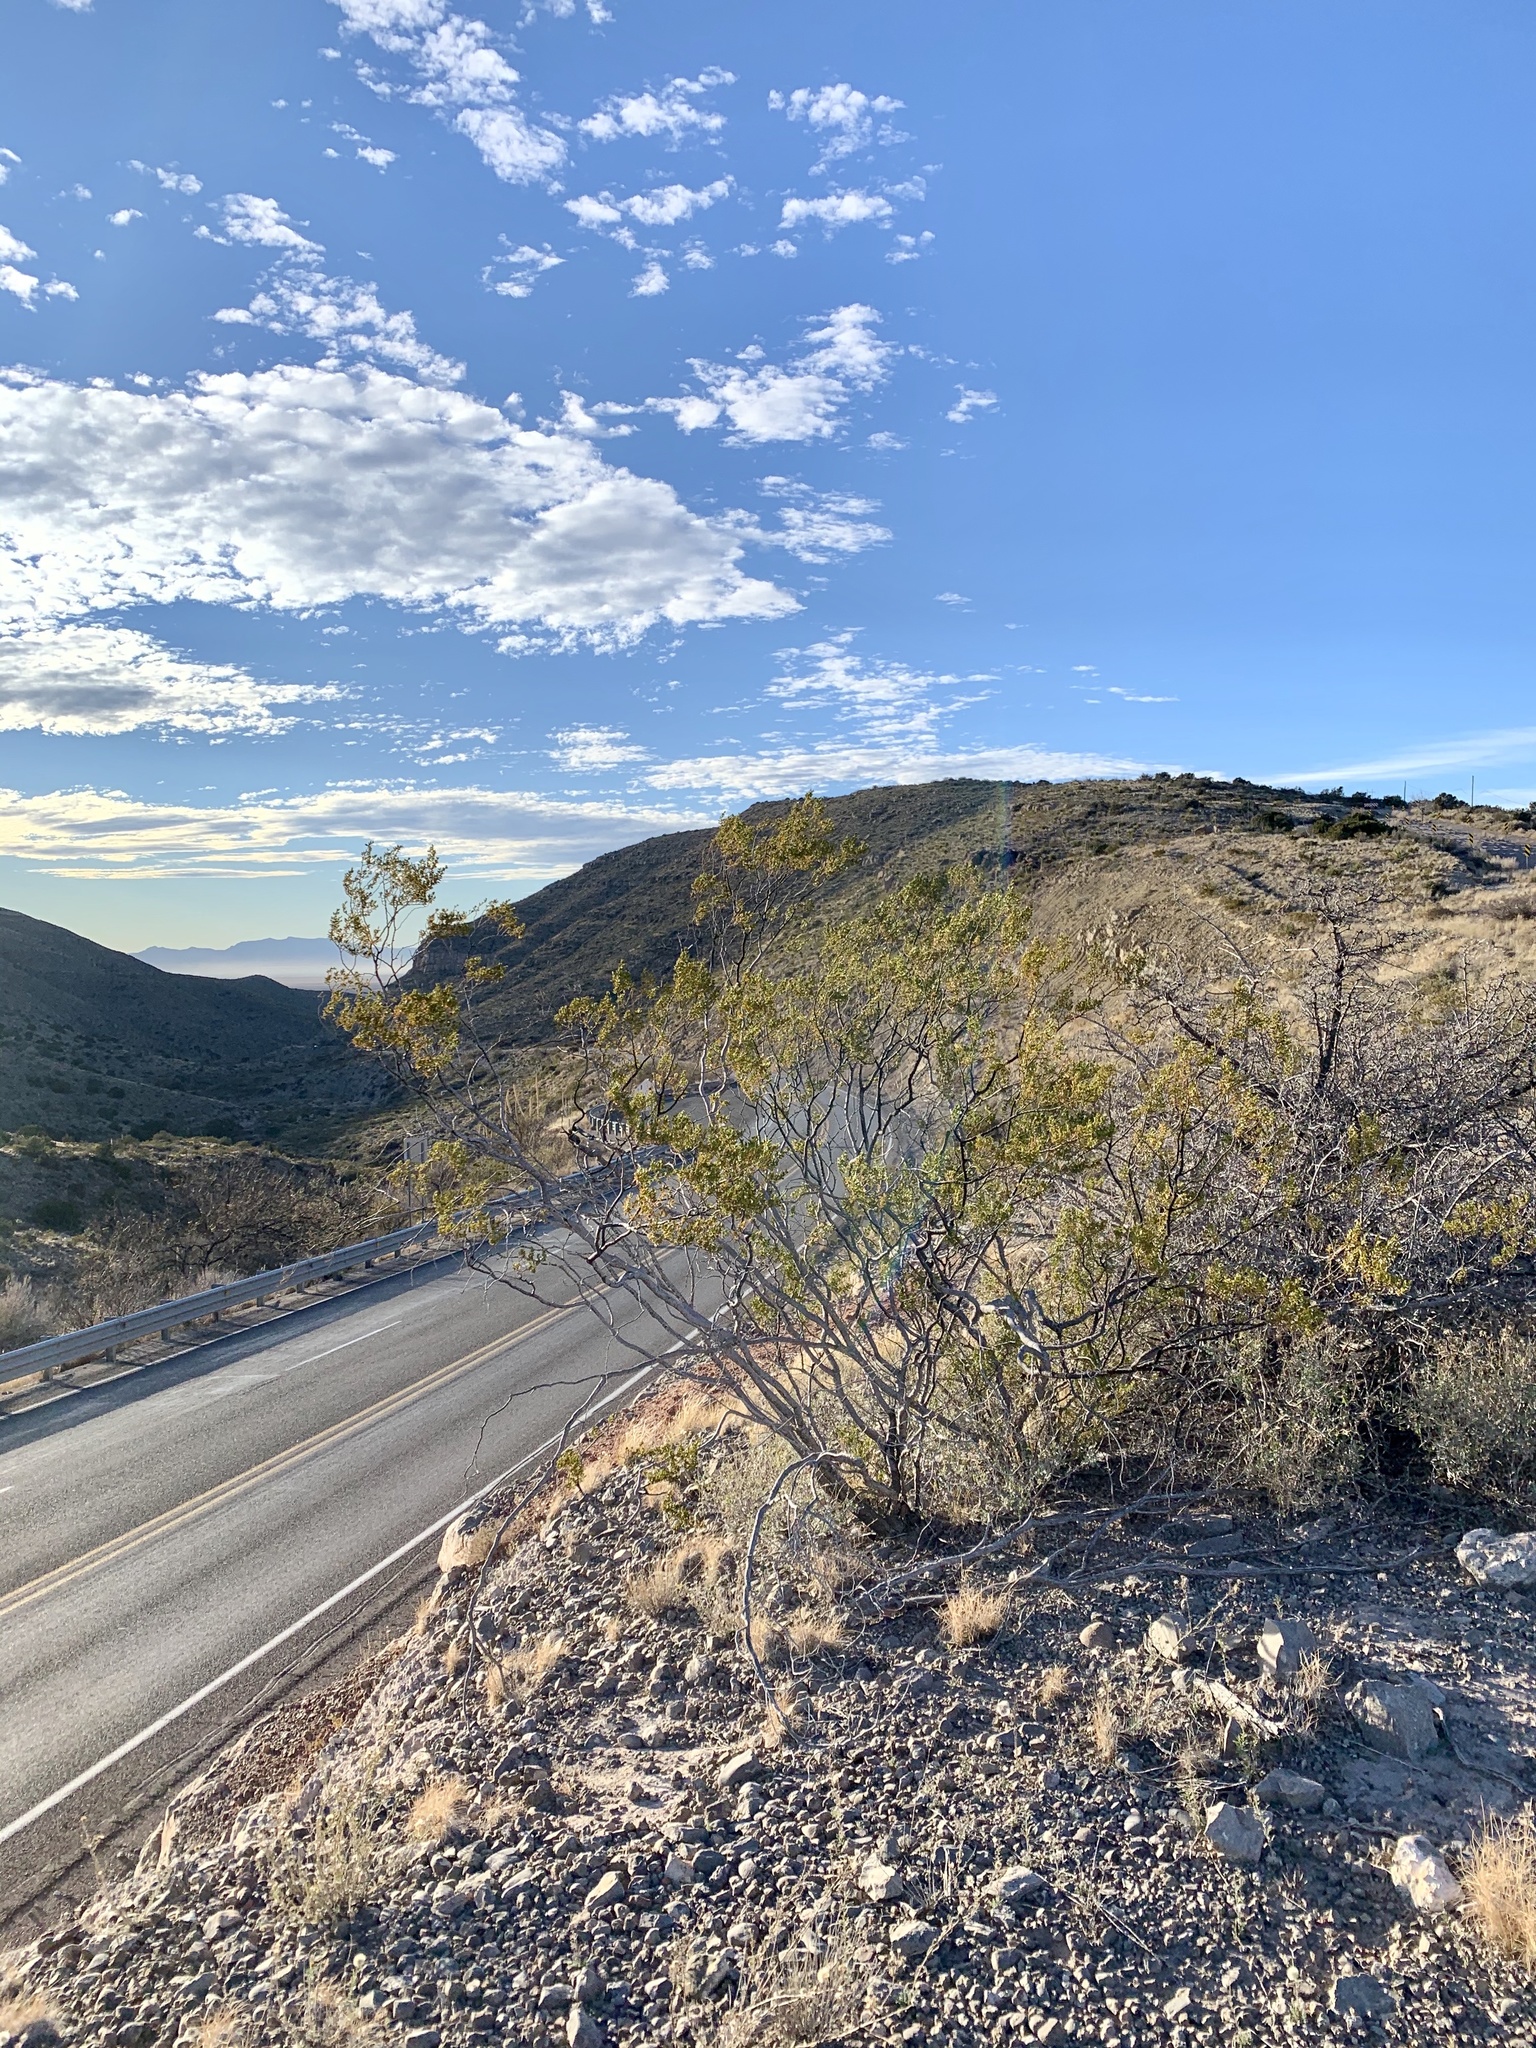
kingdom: Plantae
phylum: Tracheophyta
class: Magnoliopsida
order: Zygophyllales
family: Zygophyllaceae
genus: Larrea
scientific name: Larrea tridentata
